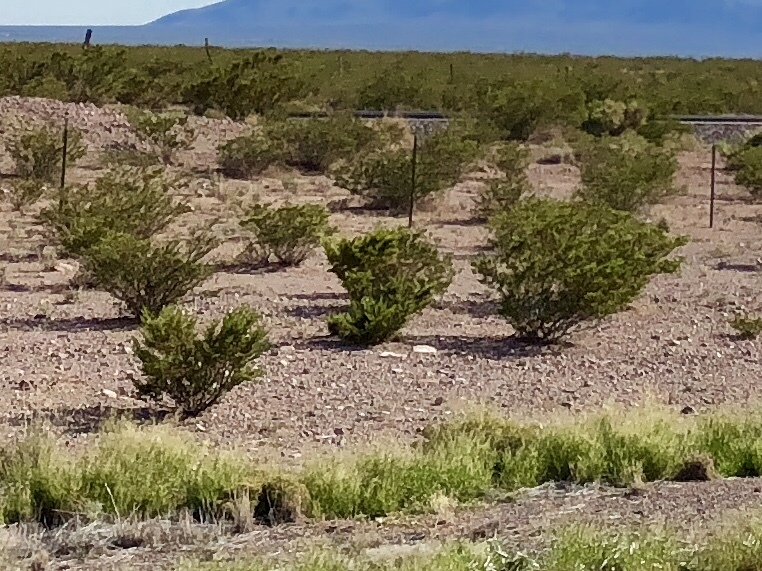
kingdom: Plantae
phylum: Tracheophyta
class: Magnoliopsida
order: Zygophyllales
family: Zygophyllaceae
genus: Larrea
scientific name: Larrea tridentata
